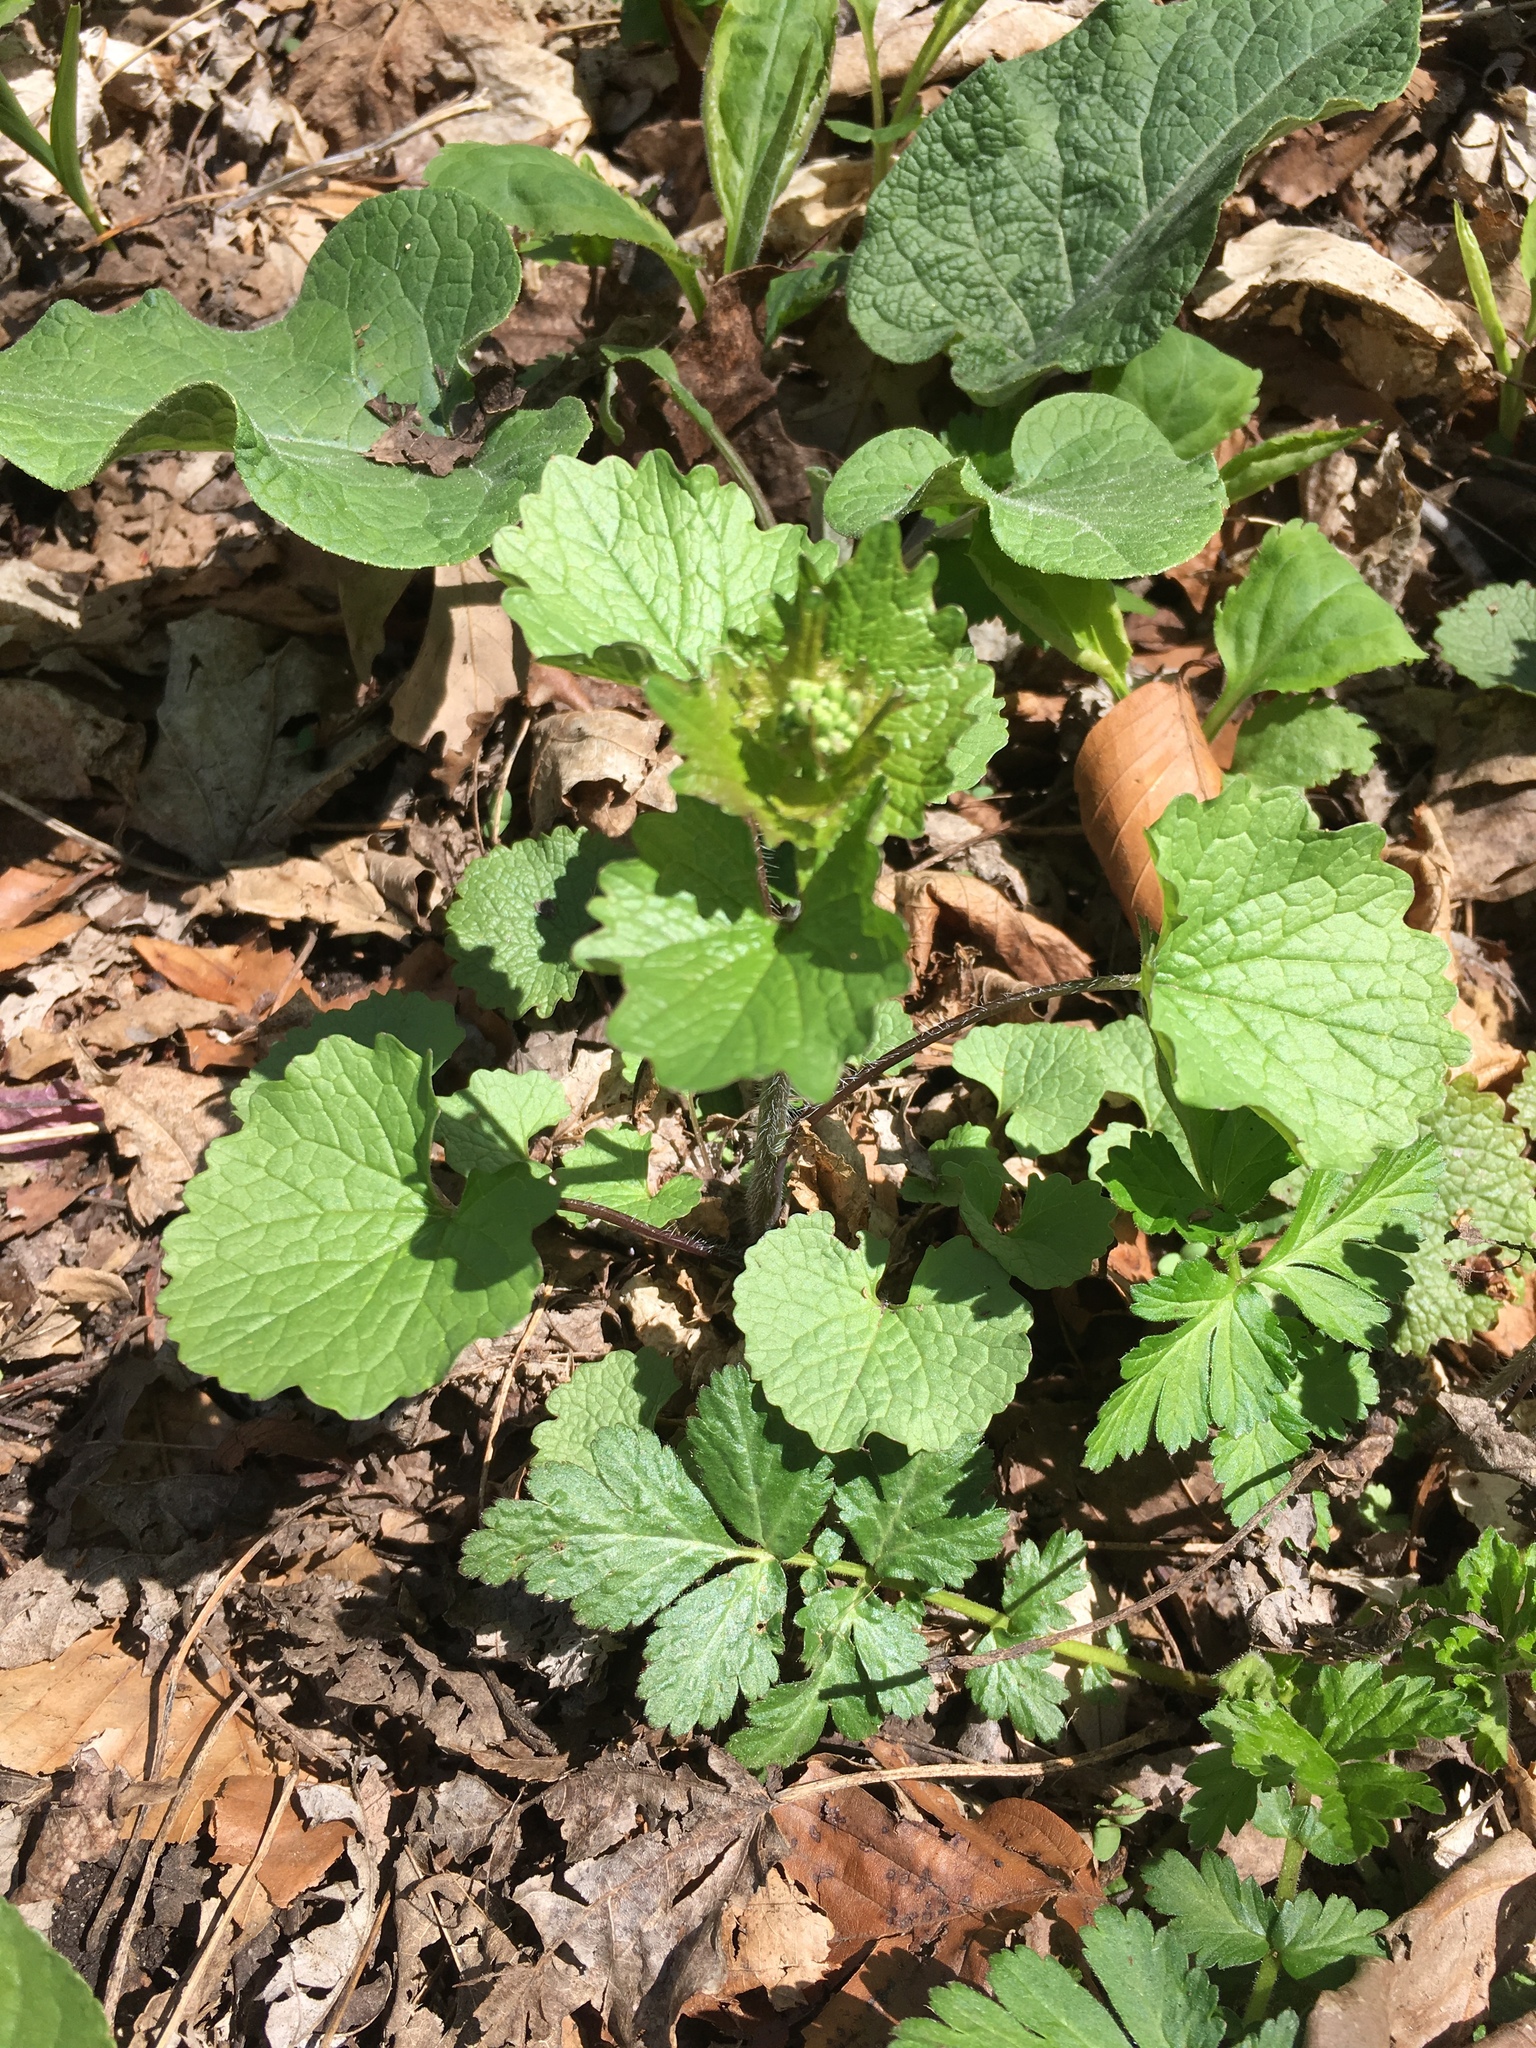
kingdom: Plantae
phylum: Tracheophyta
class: Magnoliopsida
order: Brassicales
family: Brassicaceae
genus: Alliaria
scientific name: Alliaria petiolata
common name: Garlic mustard
